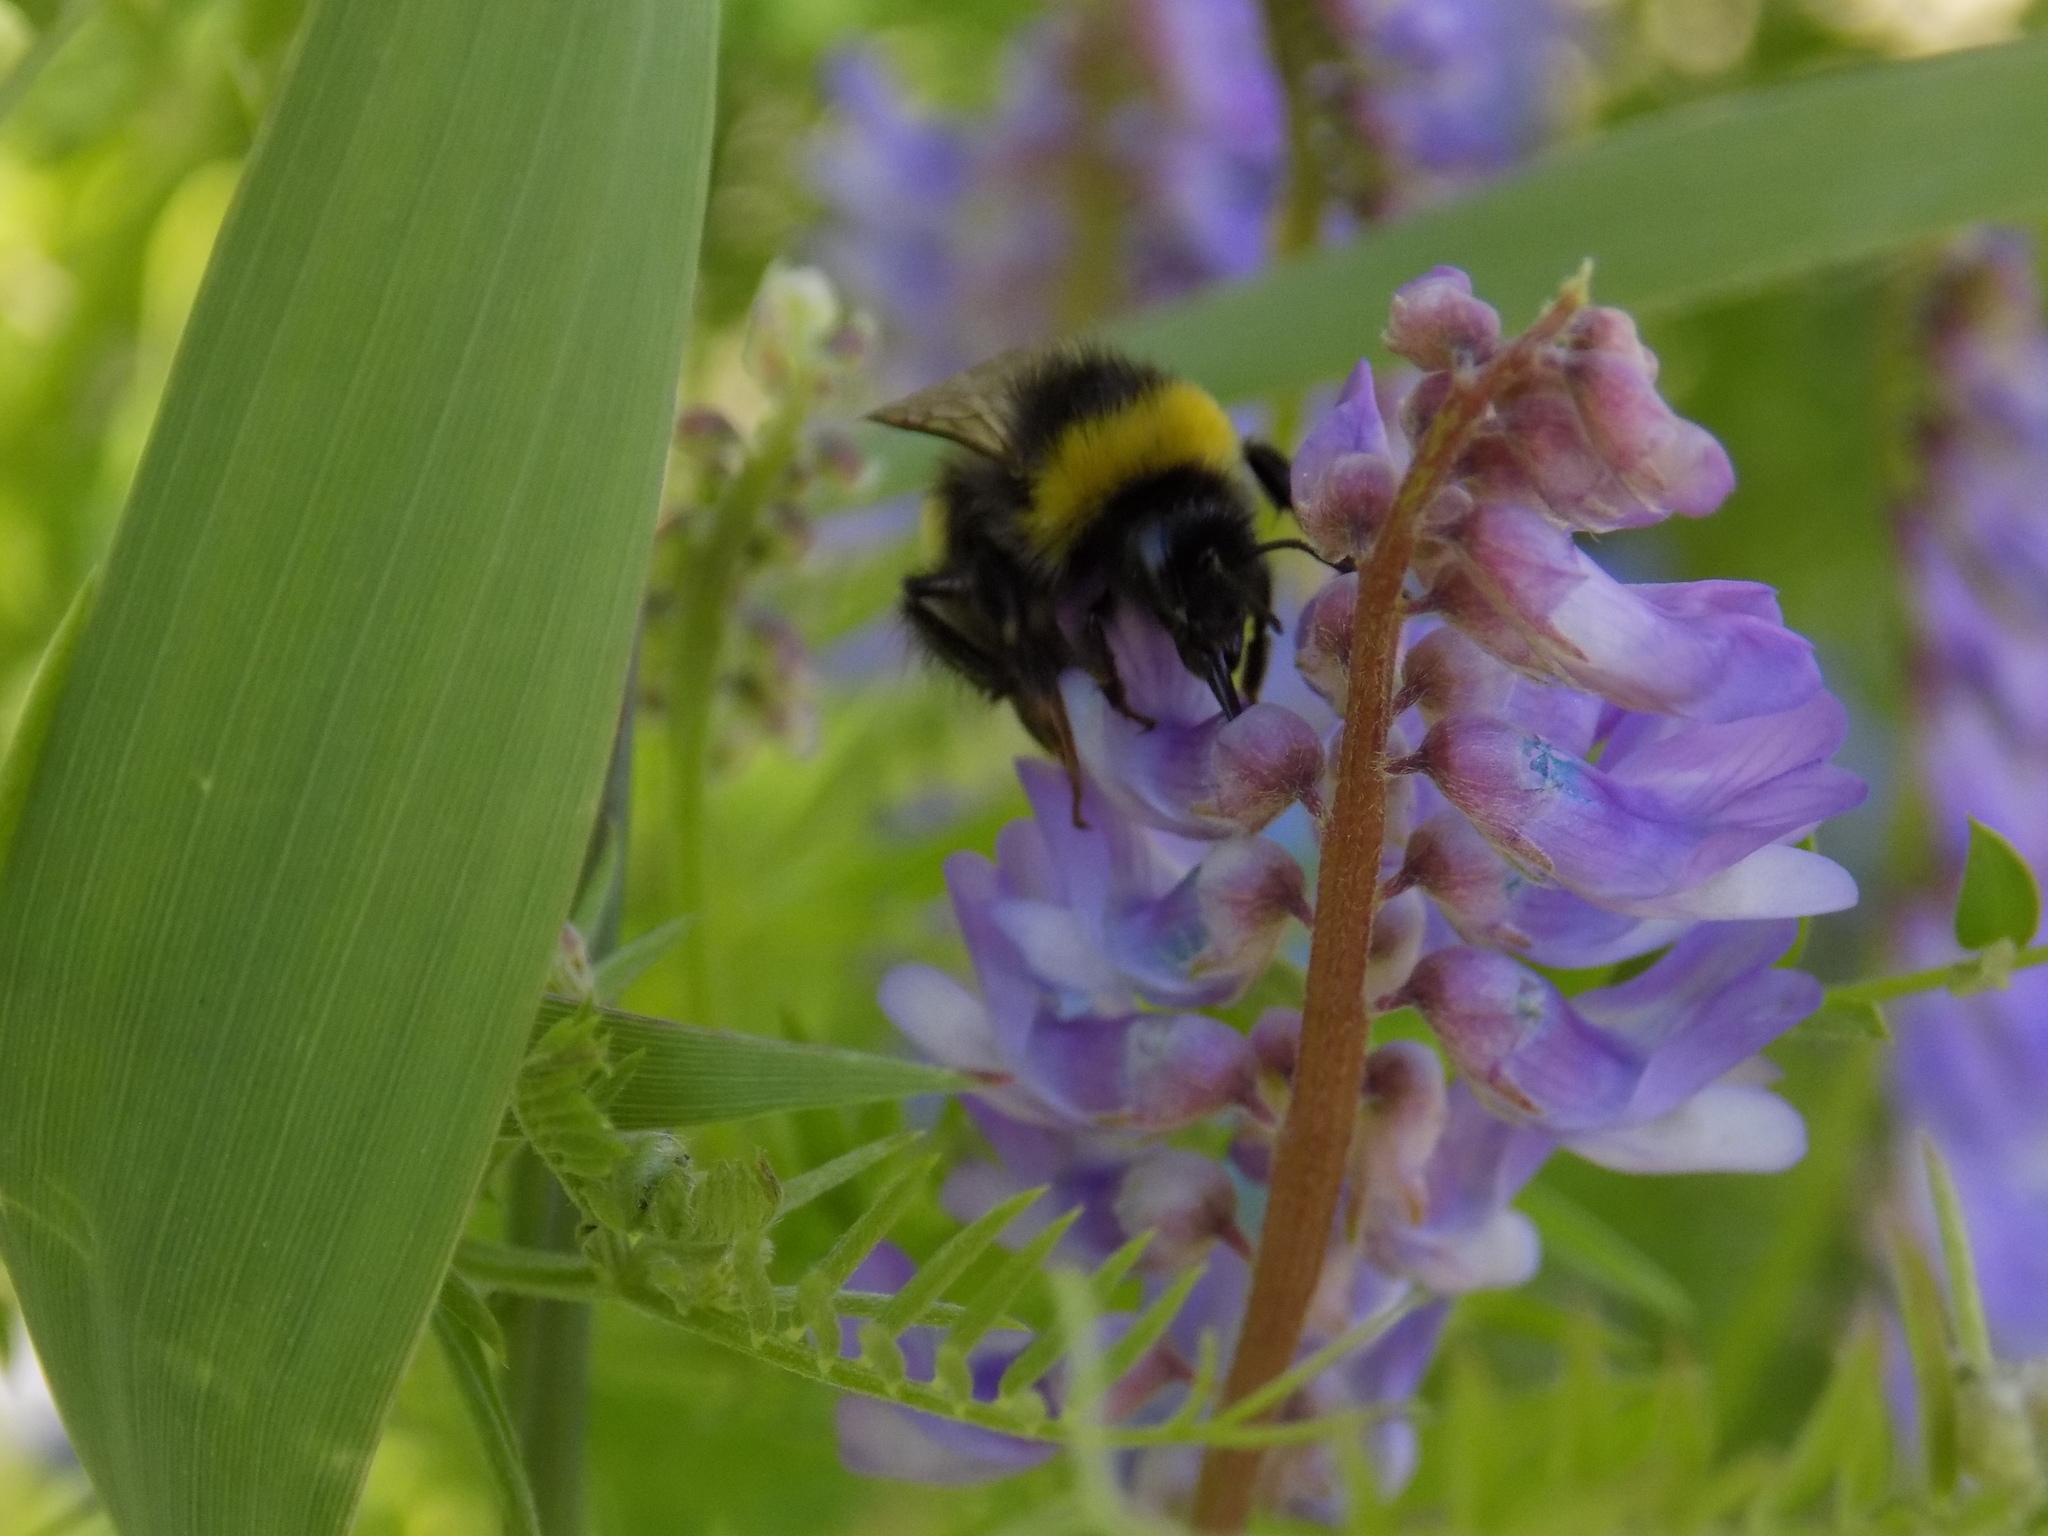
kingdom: Animalia
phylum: Arthropoda
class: Insecta
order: Hymenoptera
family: Apidae
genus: Bombus
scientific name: Bombus
